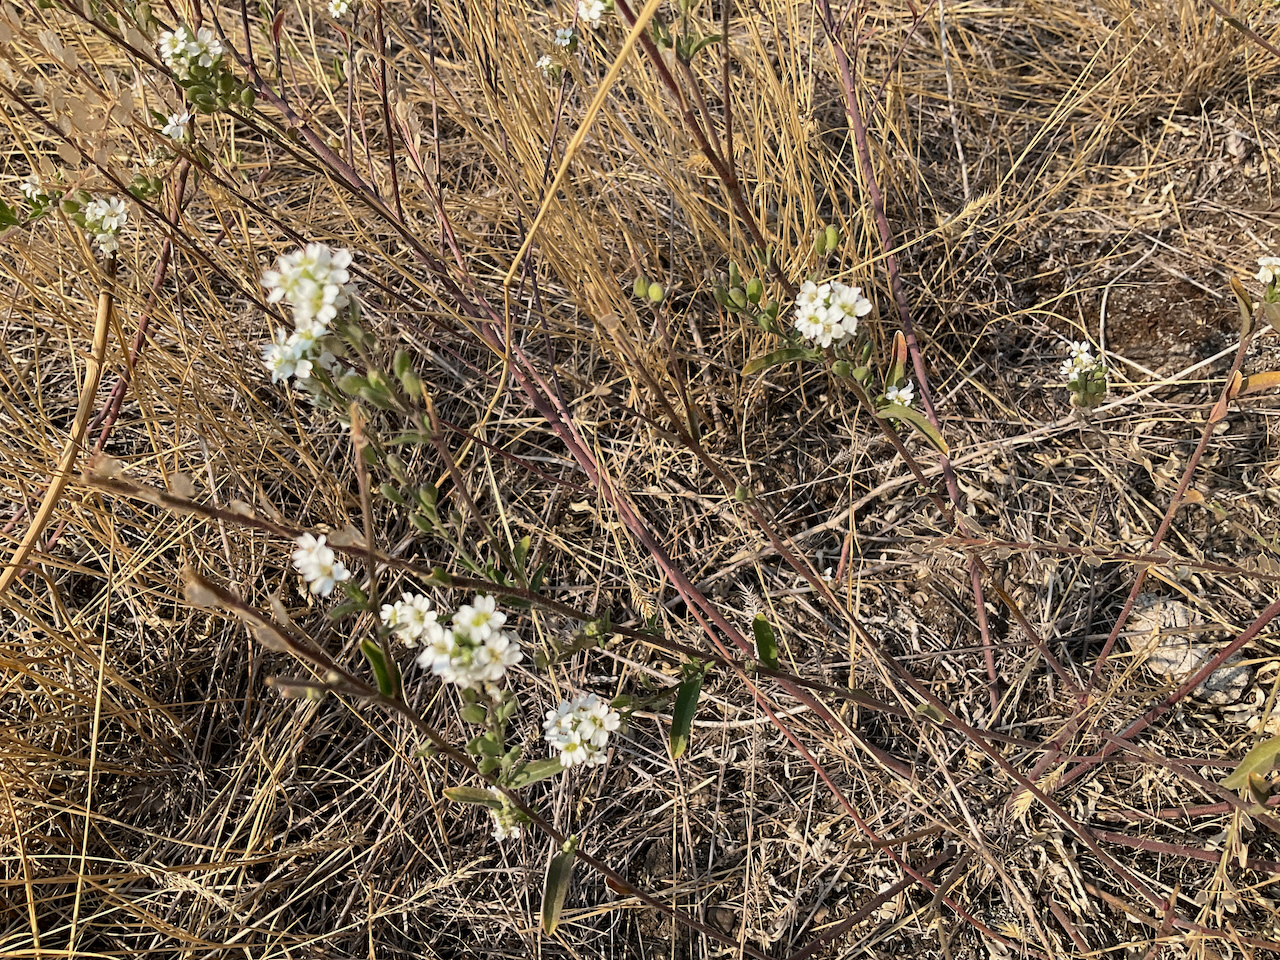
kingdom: Plantae
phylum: Tracheophyta
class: Magnoliopsida
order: Brassicales
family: Brassicaceae
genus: Berteroa
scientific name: Berteroa incana
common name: Hoary alison
